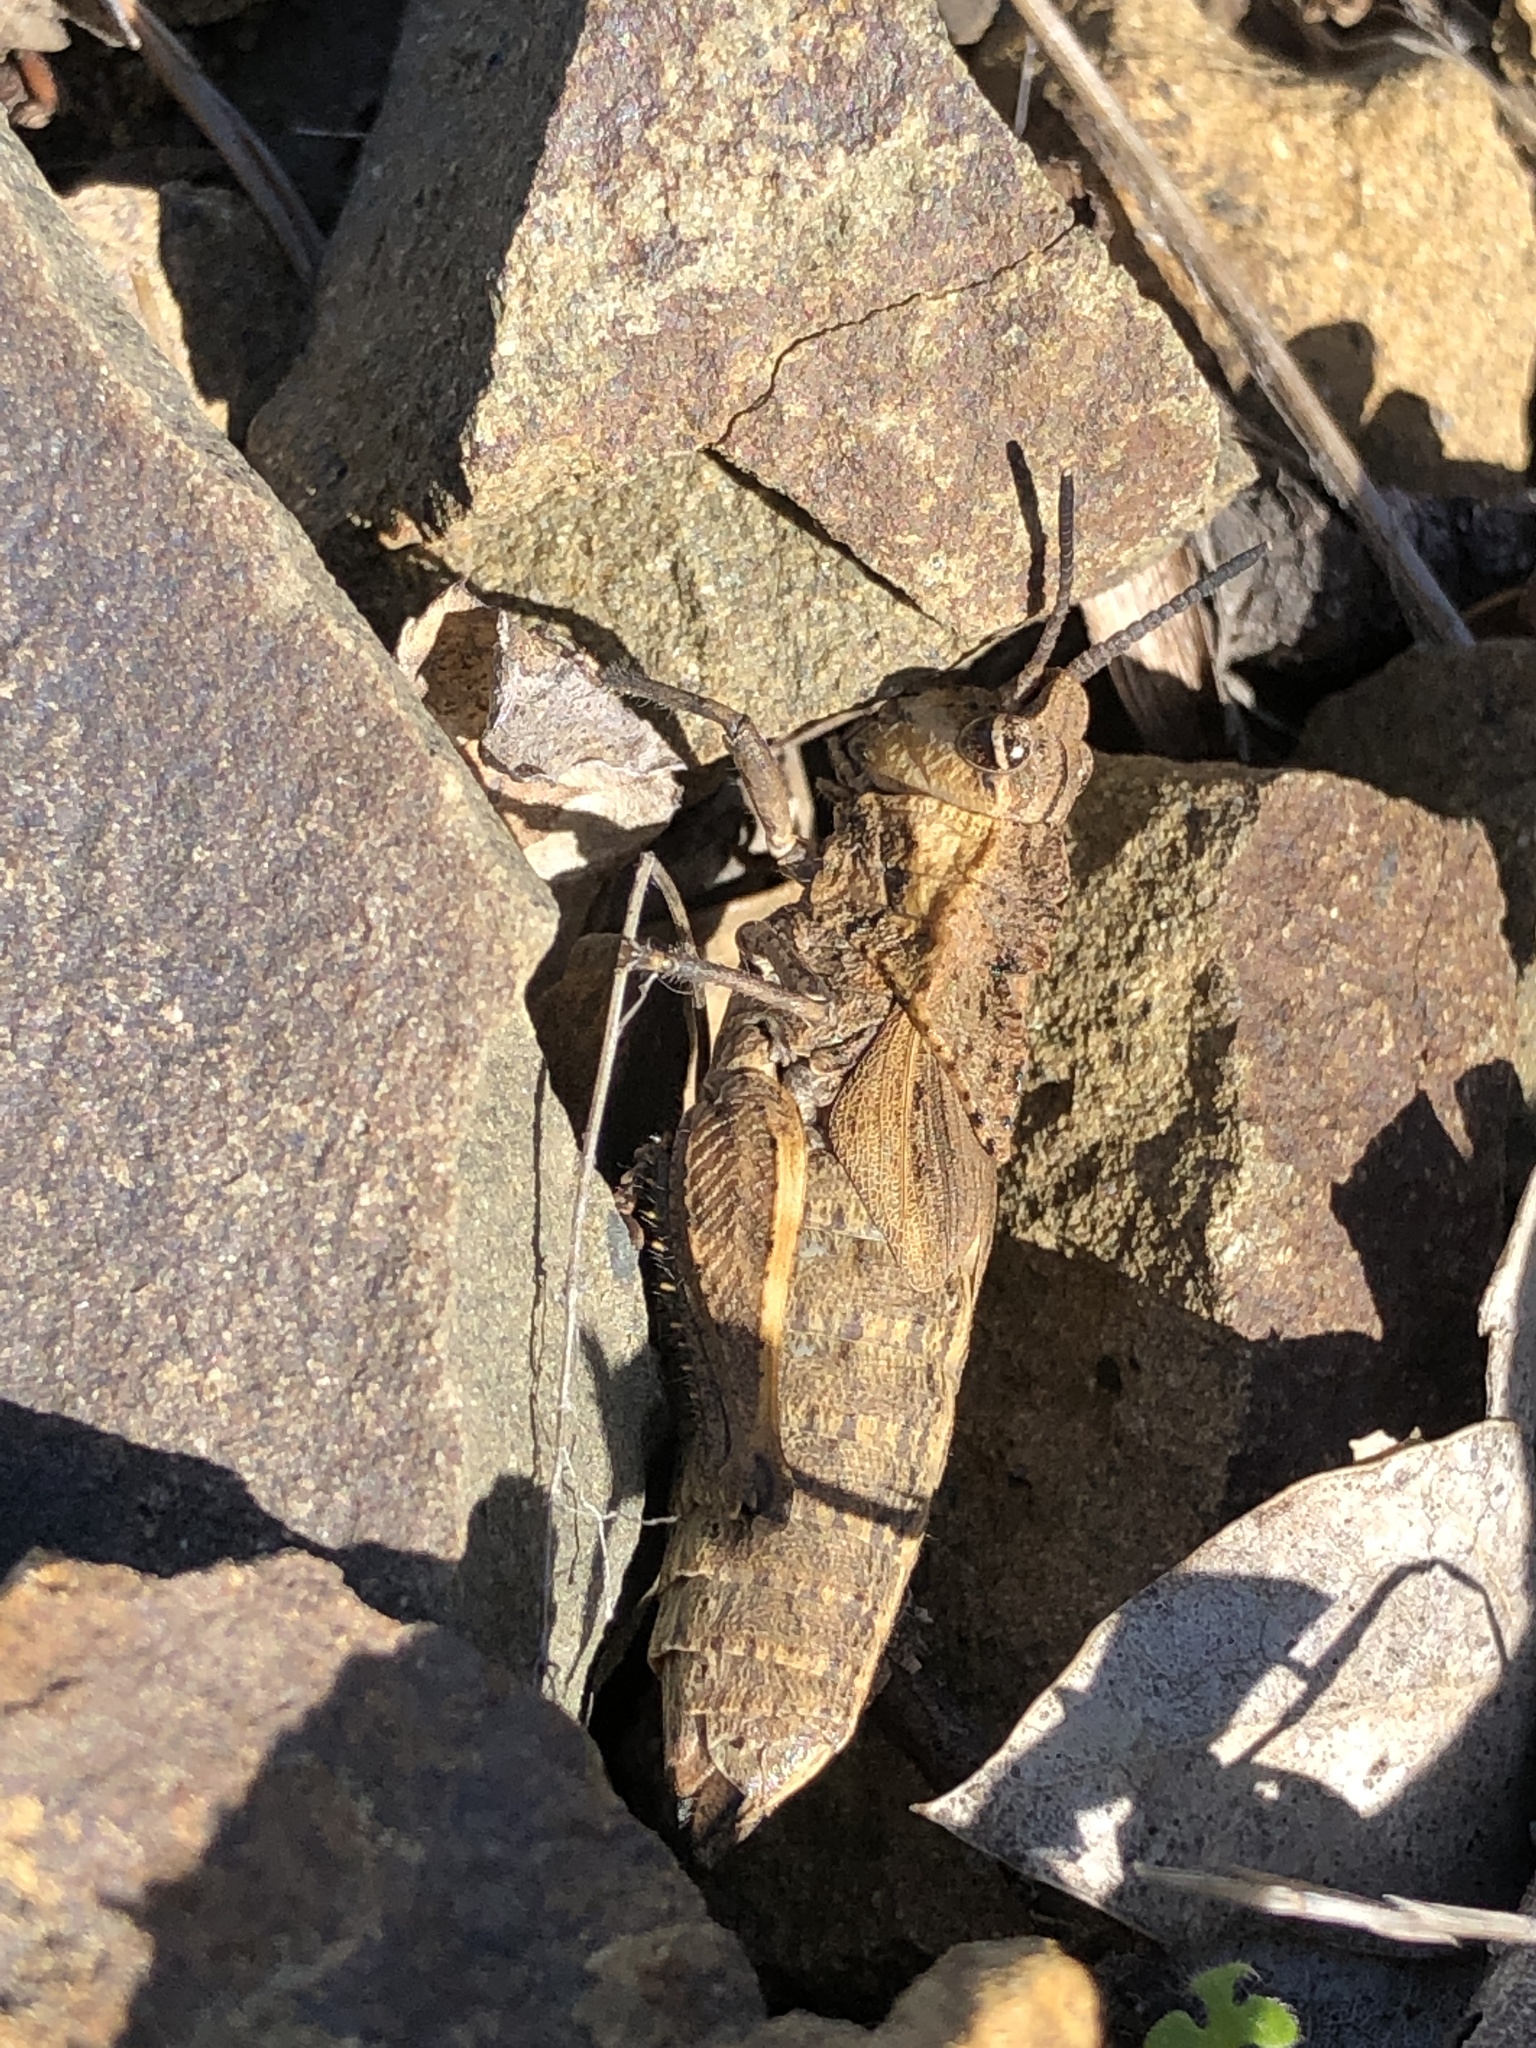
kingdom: Animalia
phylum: Arthropoda
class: Insecta
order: Orthoptera
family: Romaleidae
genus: Dracotettix
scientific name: Dracotettix monstrosus
